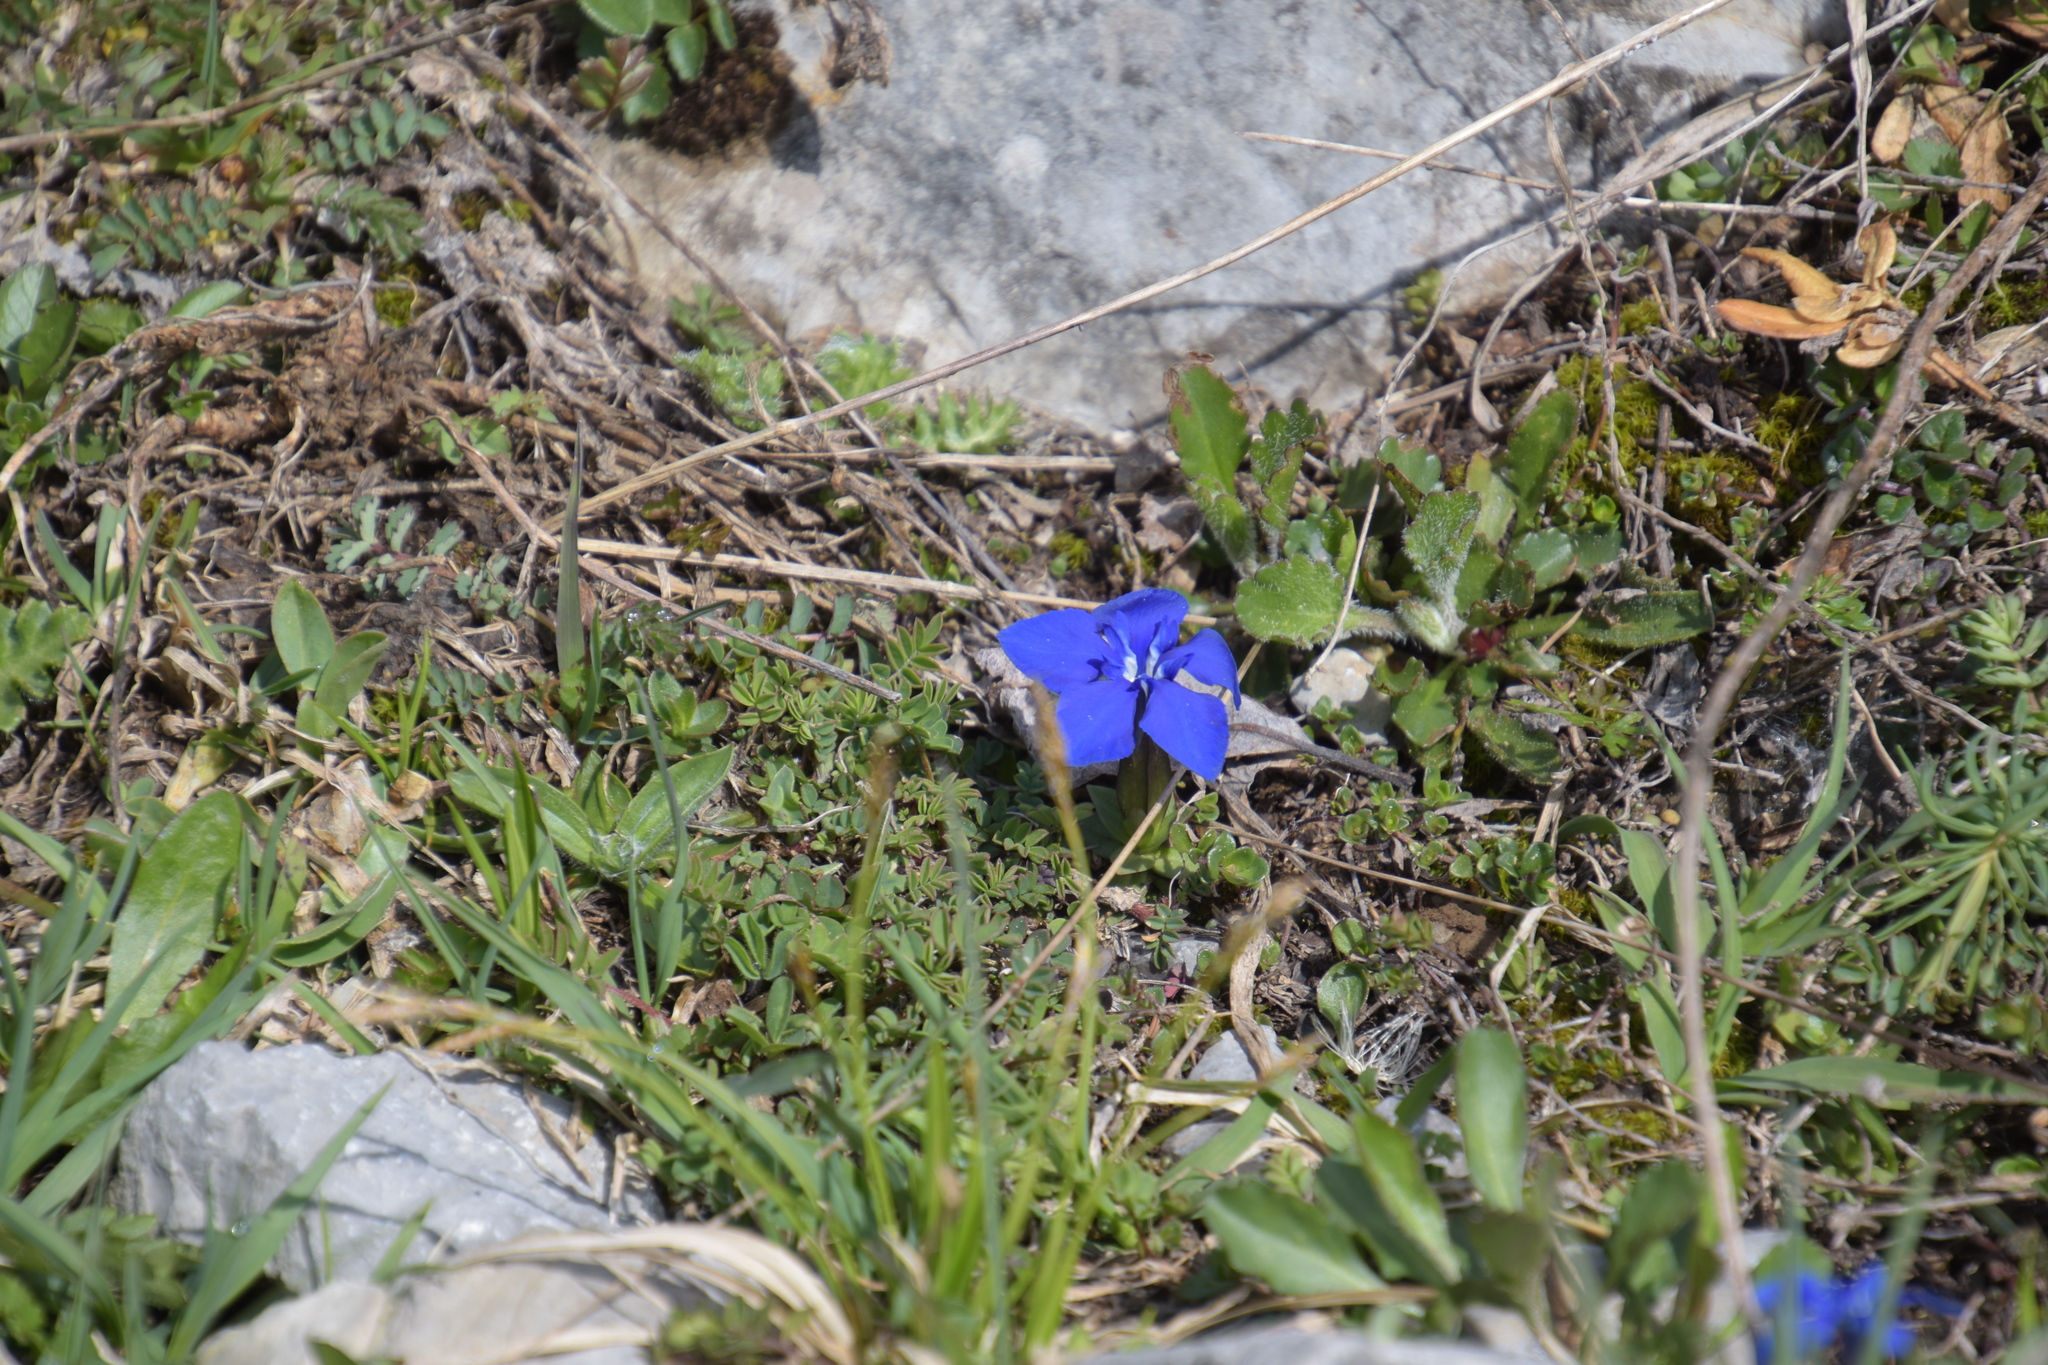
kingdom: Plantae
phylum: Tracheophyta
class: Magnoliopsida
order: Gentianales
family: Gentianaceae
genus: Gentiana
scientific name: Gentiana verna
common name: Spring gentian
